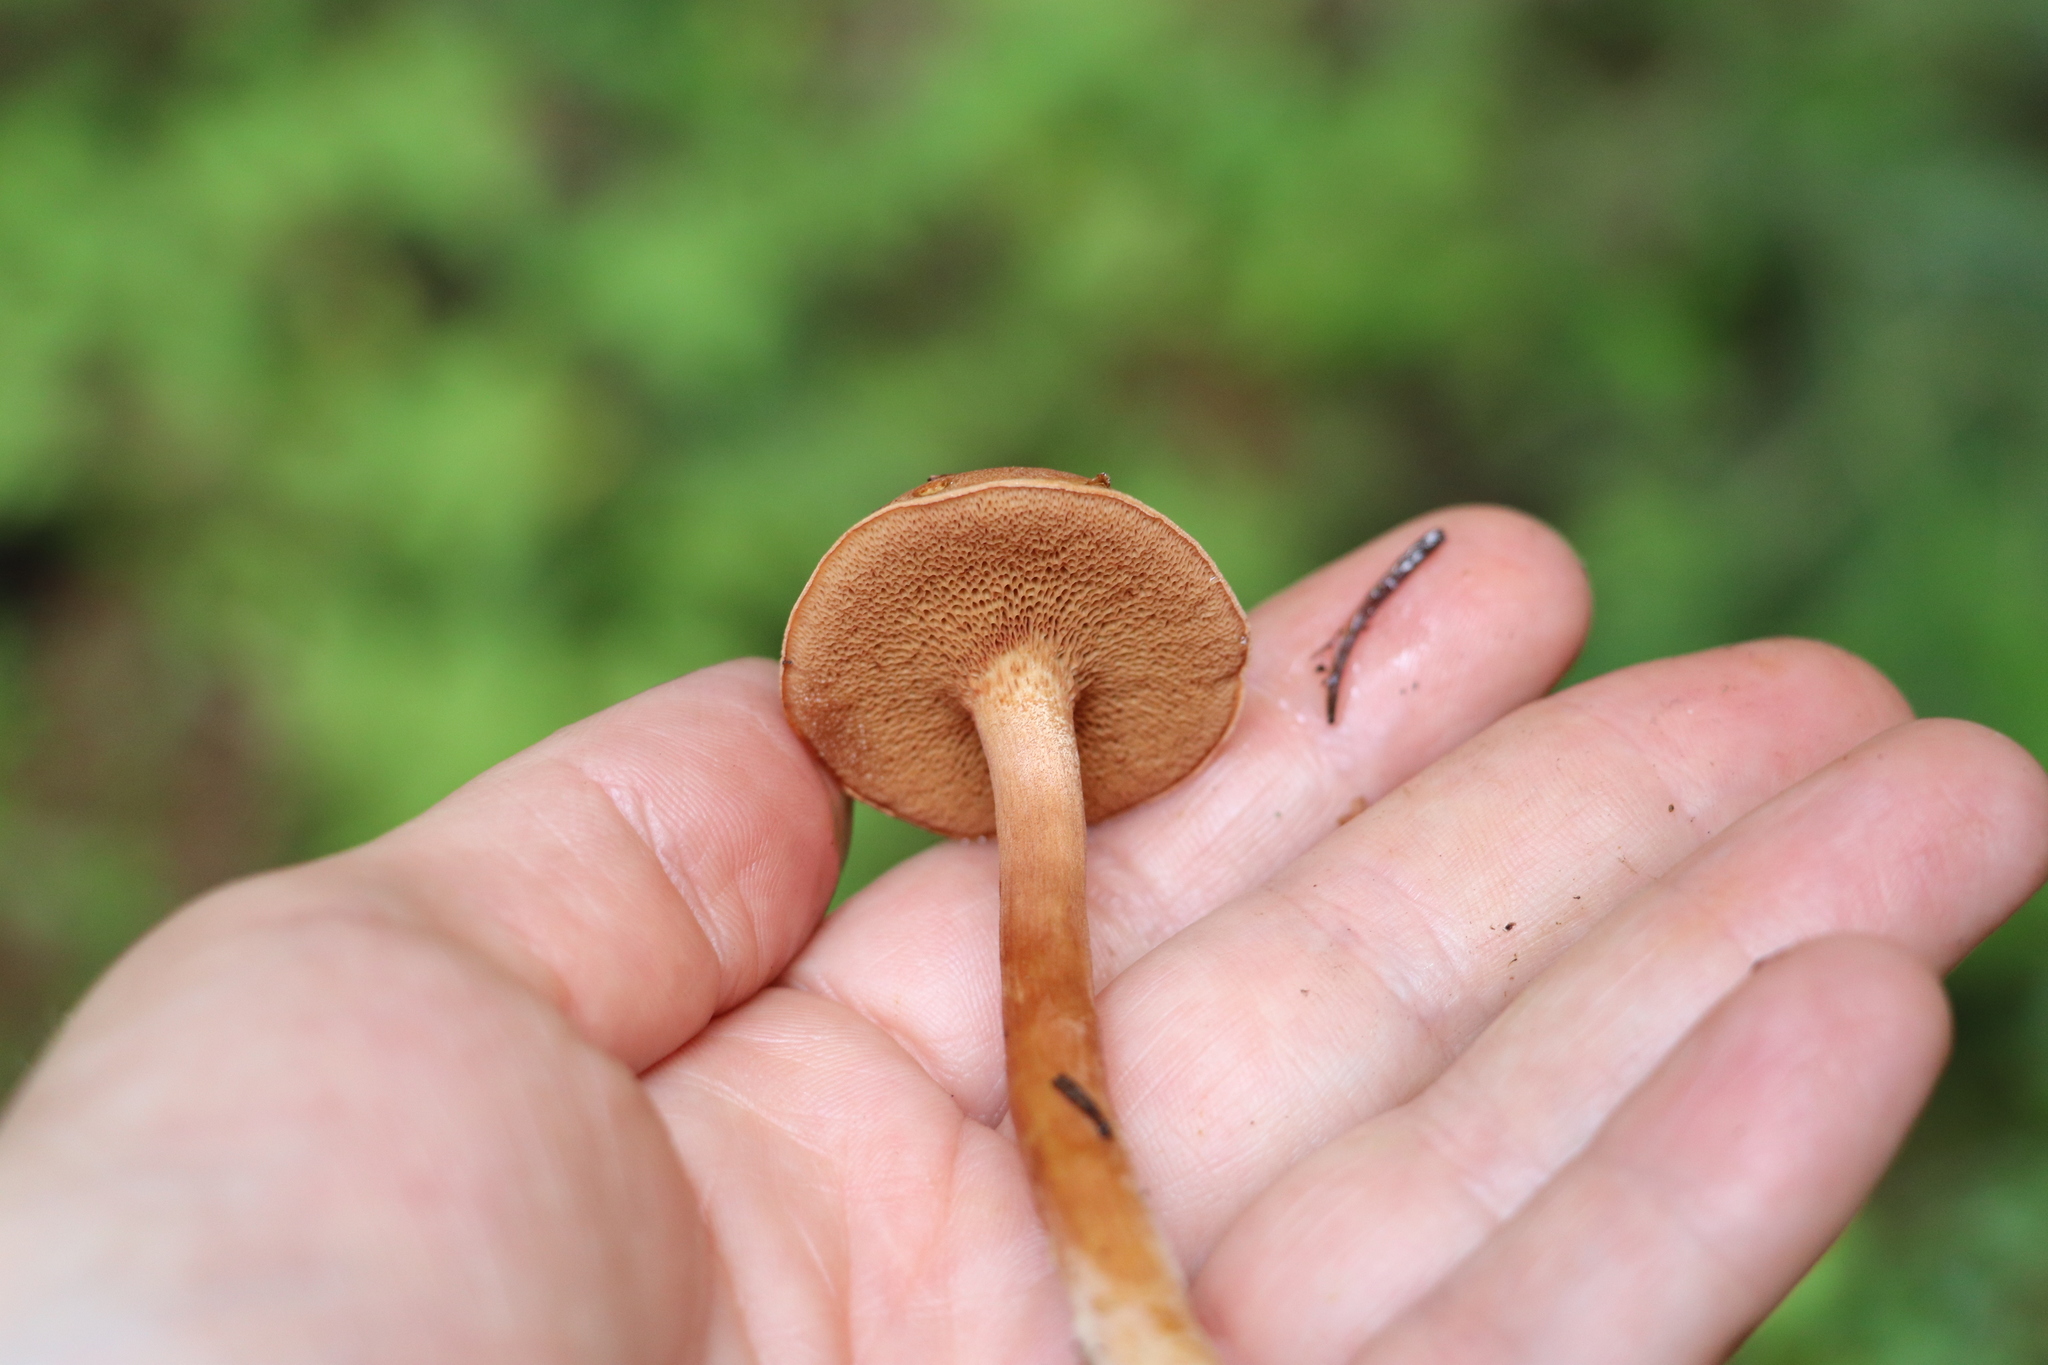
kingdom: Fungi
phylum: Basidiomycota
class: Agaricomycetes
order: Boletales
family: Boletaceae
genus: Chalciporus
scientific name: Chalciporus piperatus
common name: Peppery bolete
